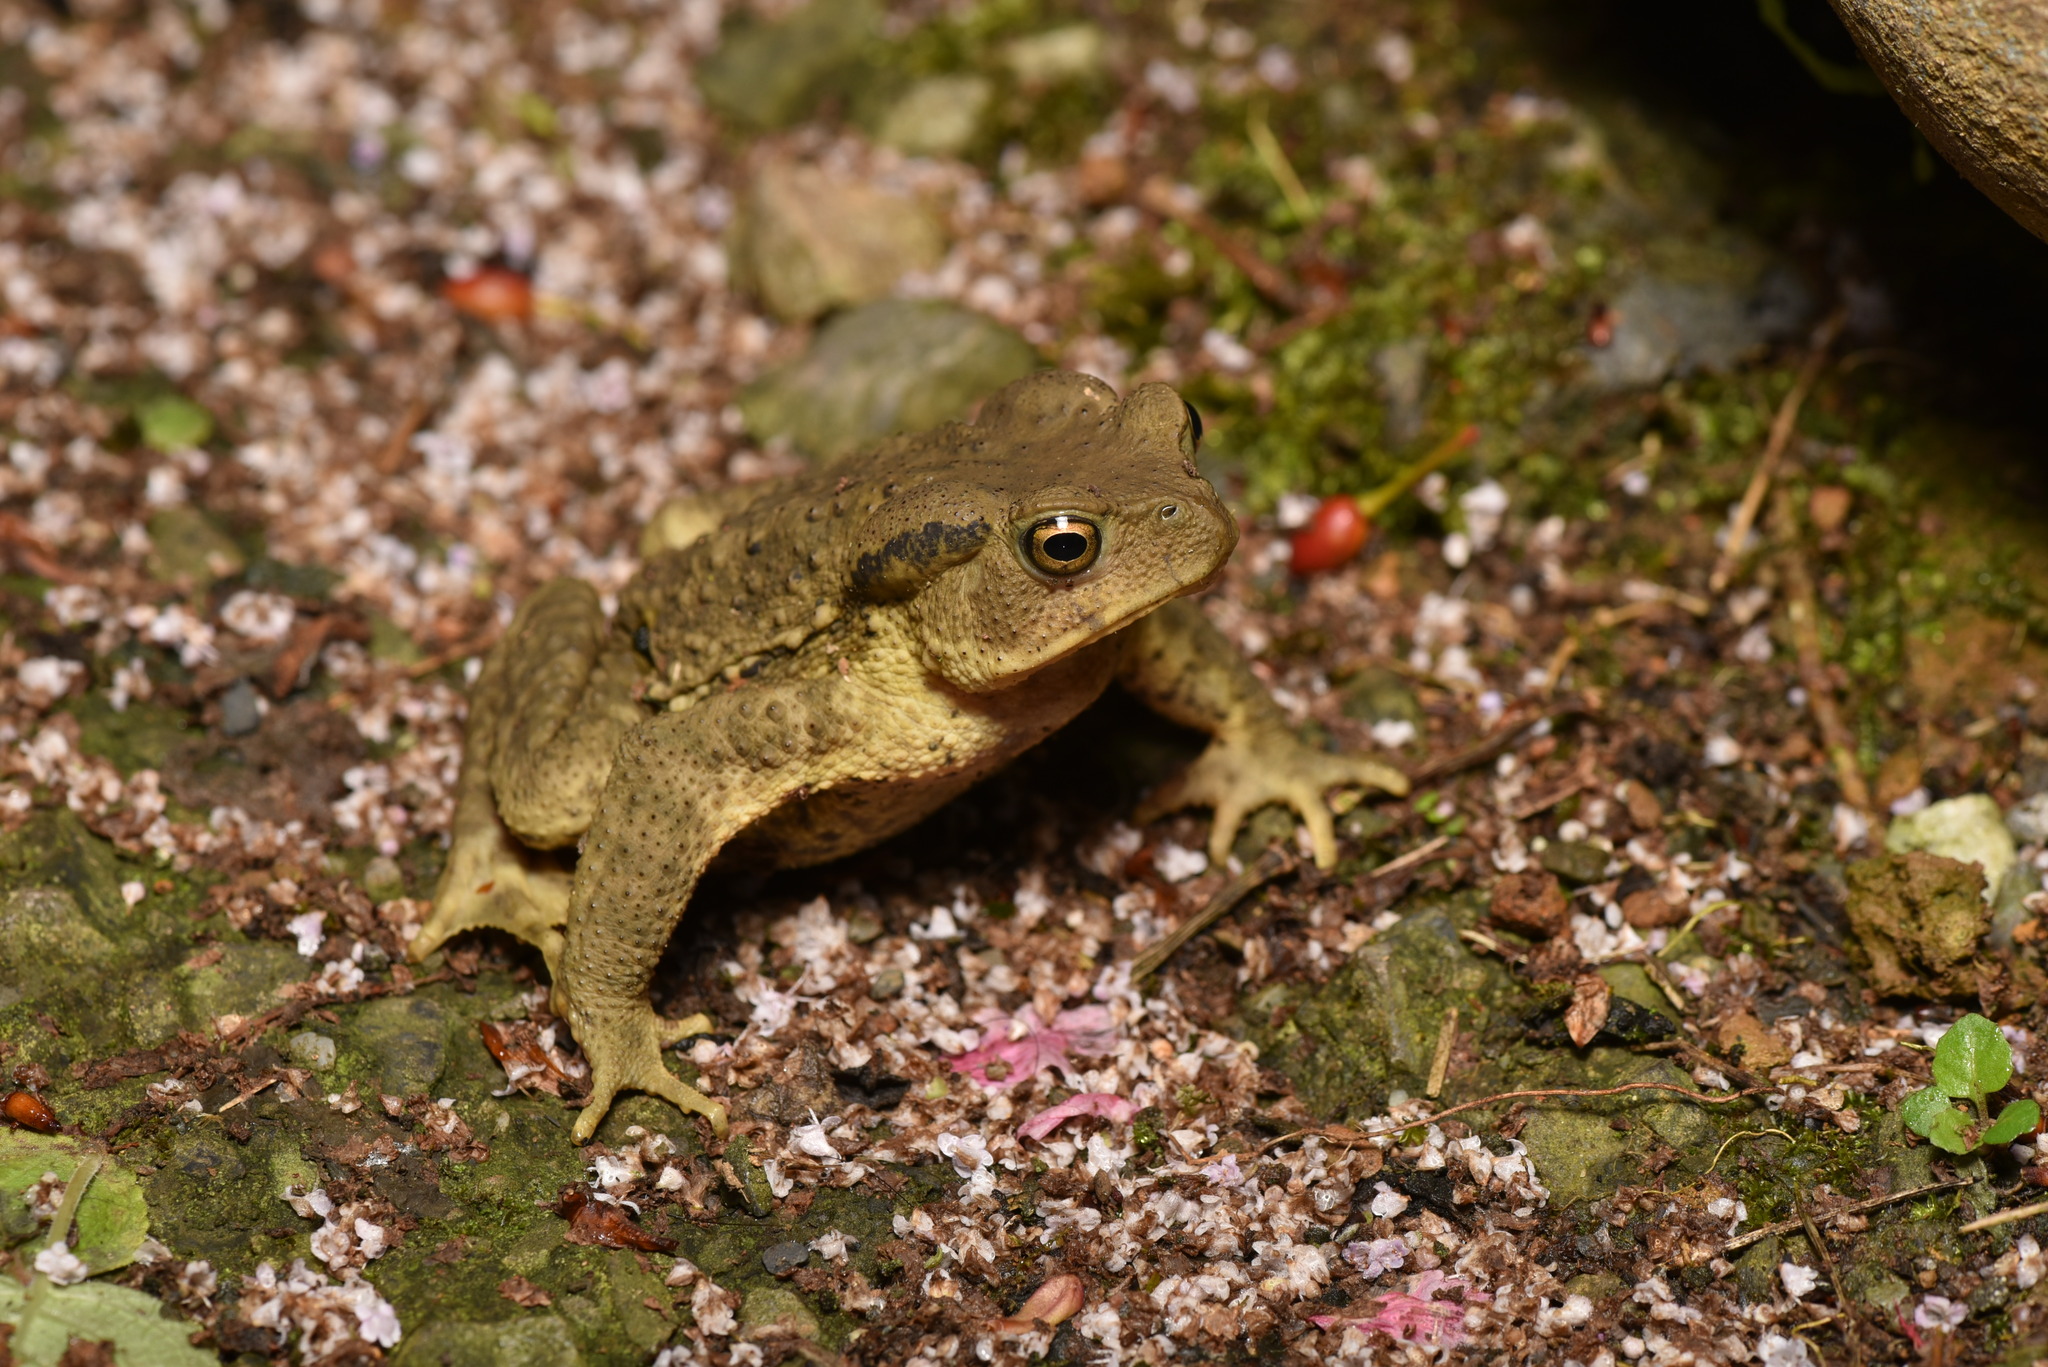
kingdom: Animalia
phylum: Chordata
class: Amphibia
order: Anura
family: Bufonidae
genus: Bufo
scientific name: Bufo bankorensis
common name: Bankor toad
